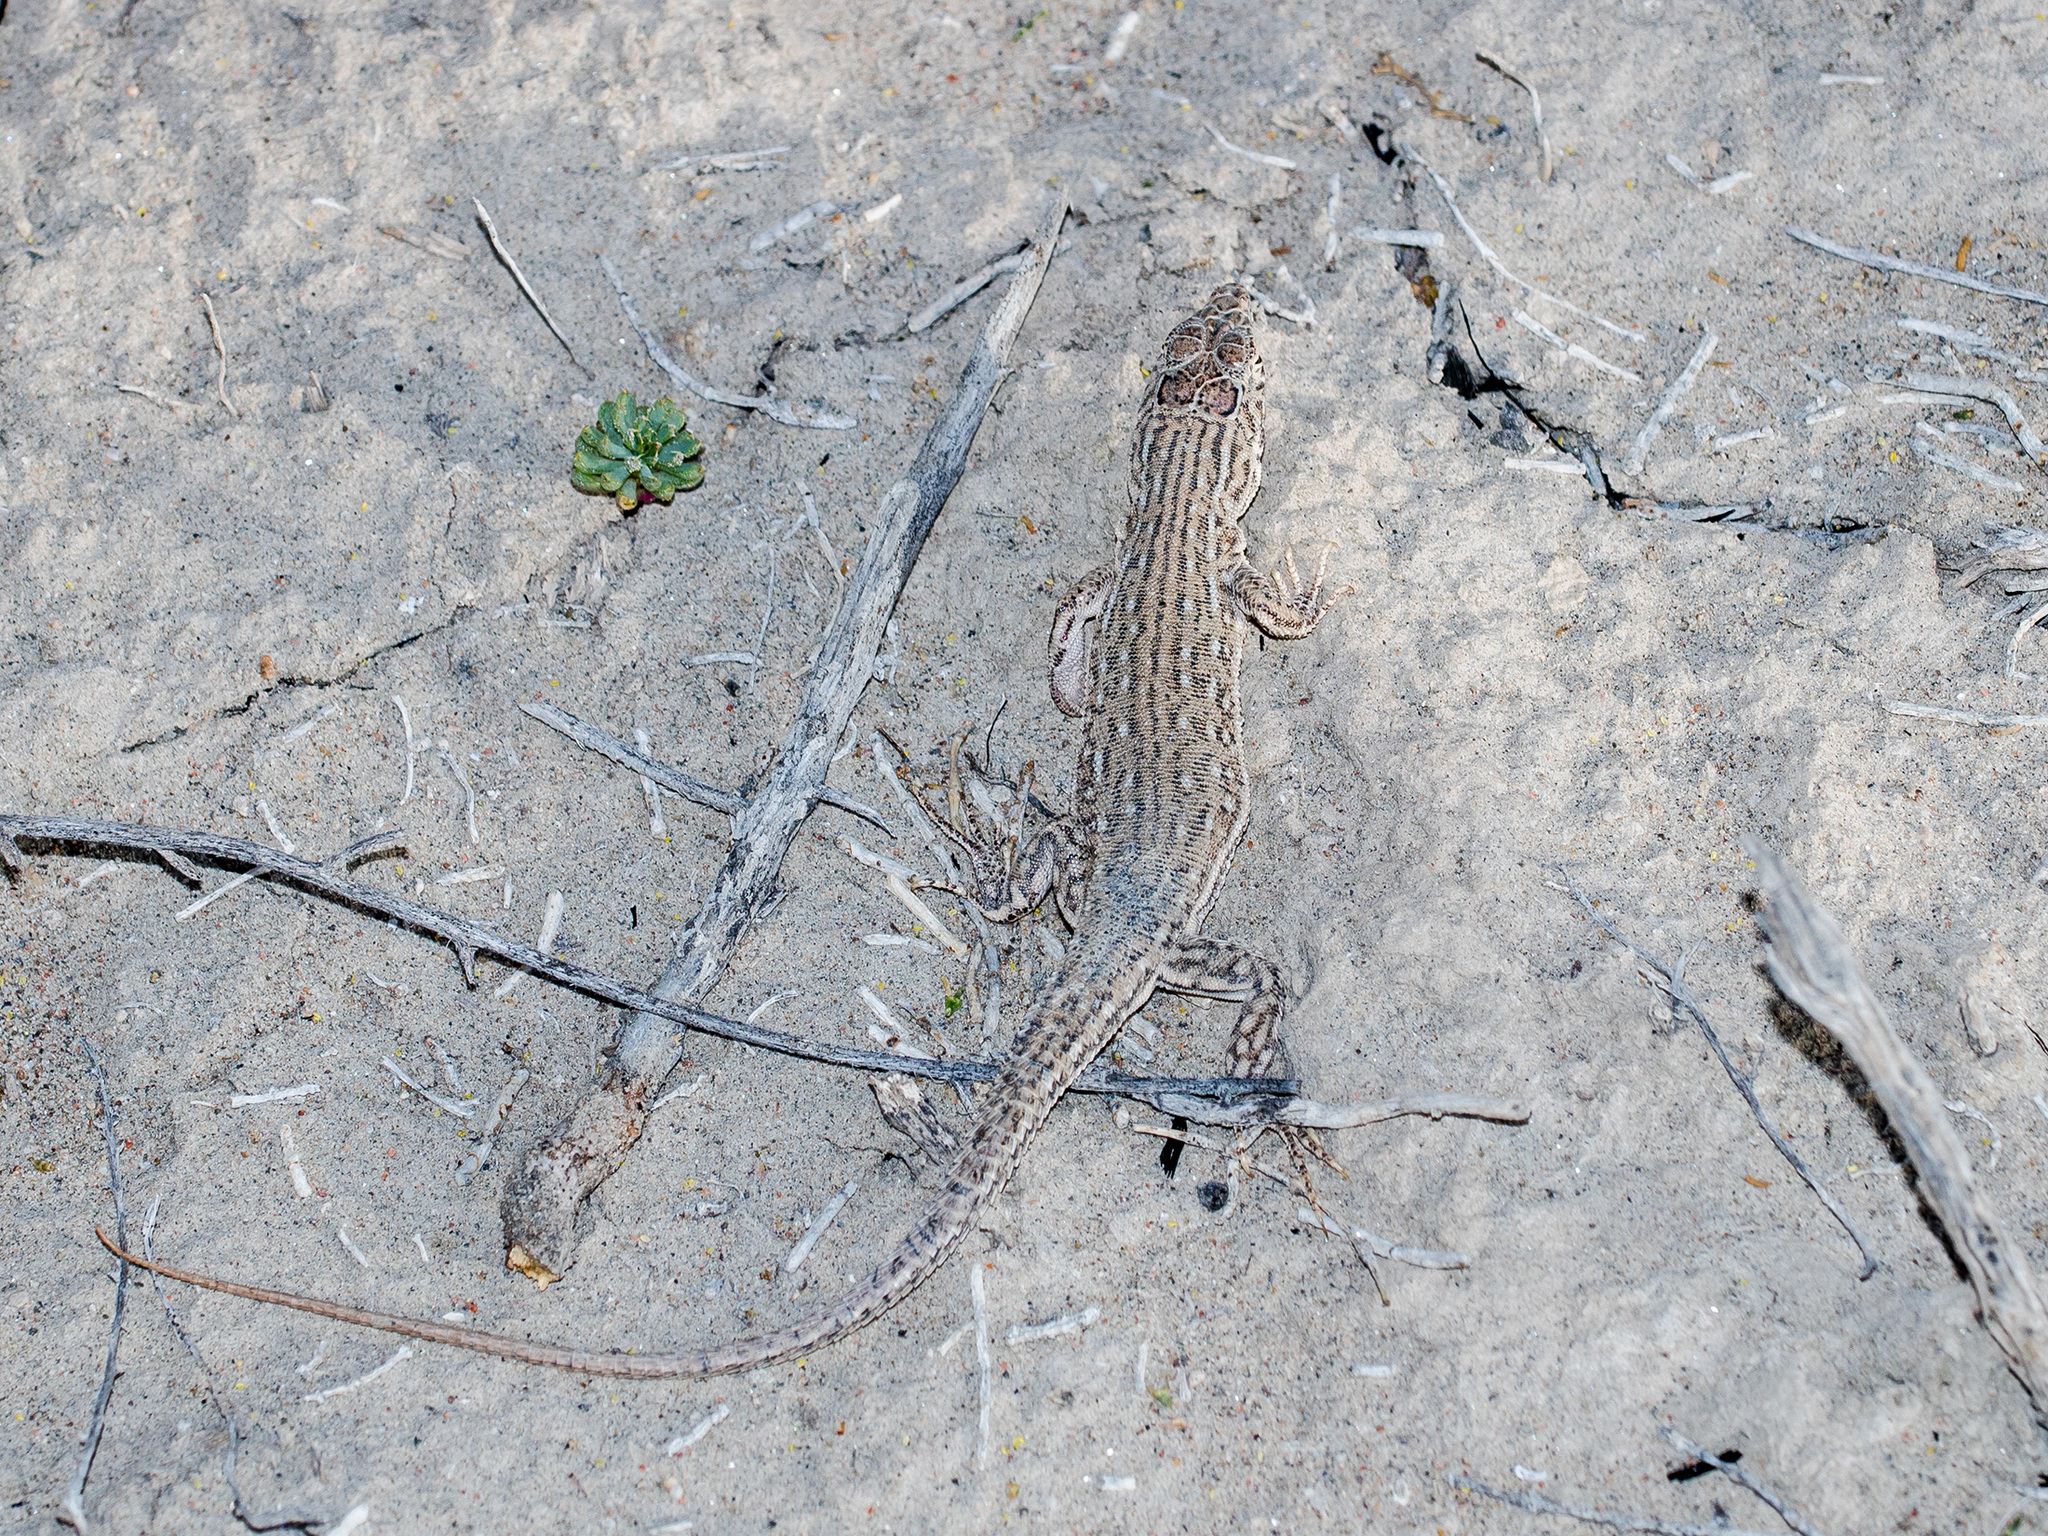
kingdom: Animalia
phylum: Chordata
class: Squamata
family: Lacertidae
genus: Eremias
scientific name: Eremias intermedia
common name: Aralo-caspian racerunner
